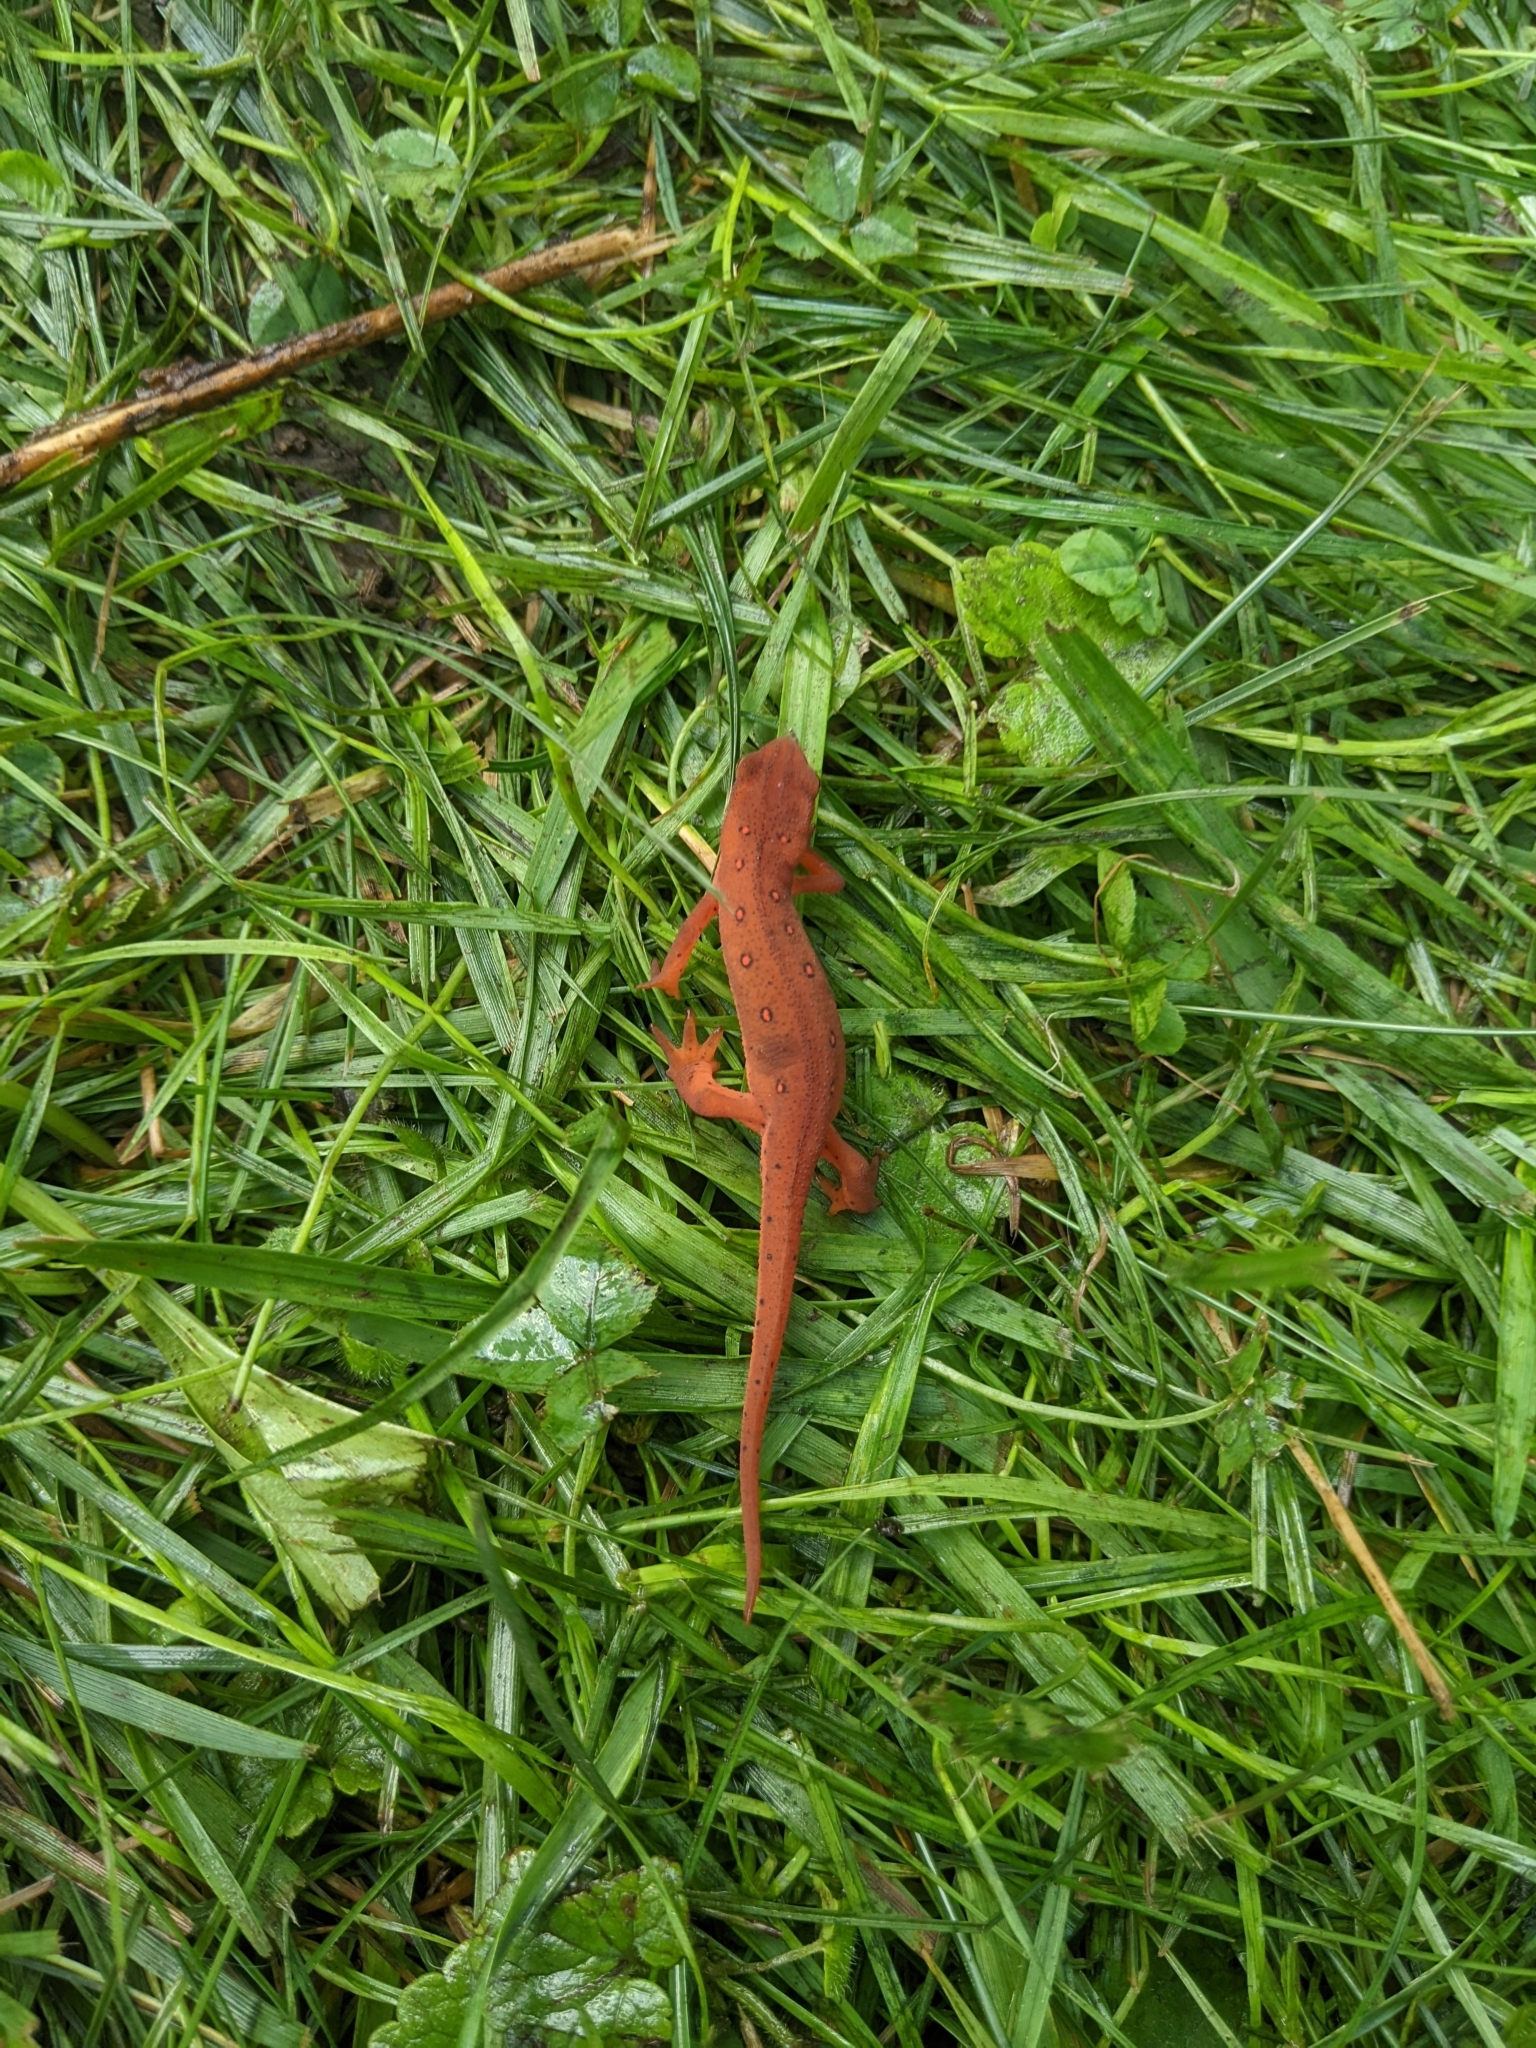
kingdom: Animalia
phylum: Chordata
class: Amphibia
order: Caudata
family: Salamandridae
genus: Notophthalmus
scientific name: Notophthalmus viridescens
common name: Eastern newt
